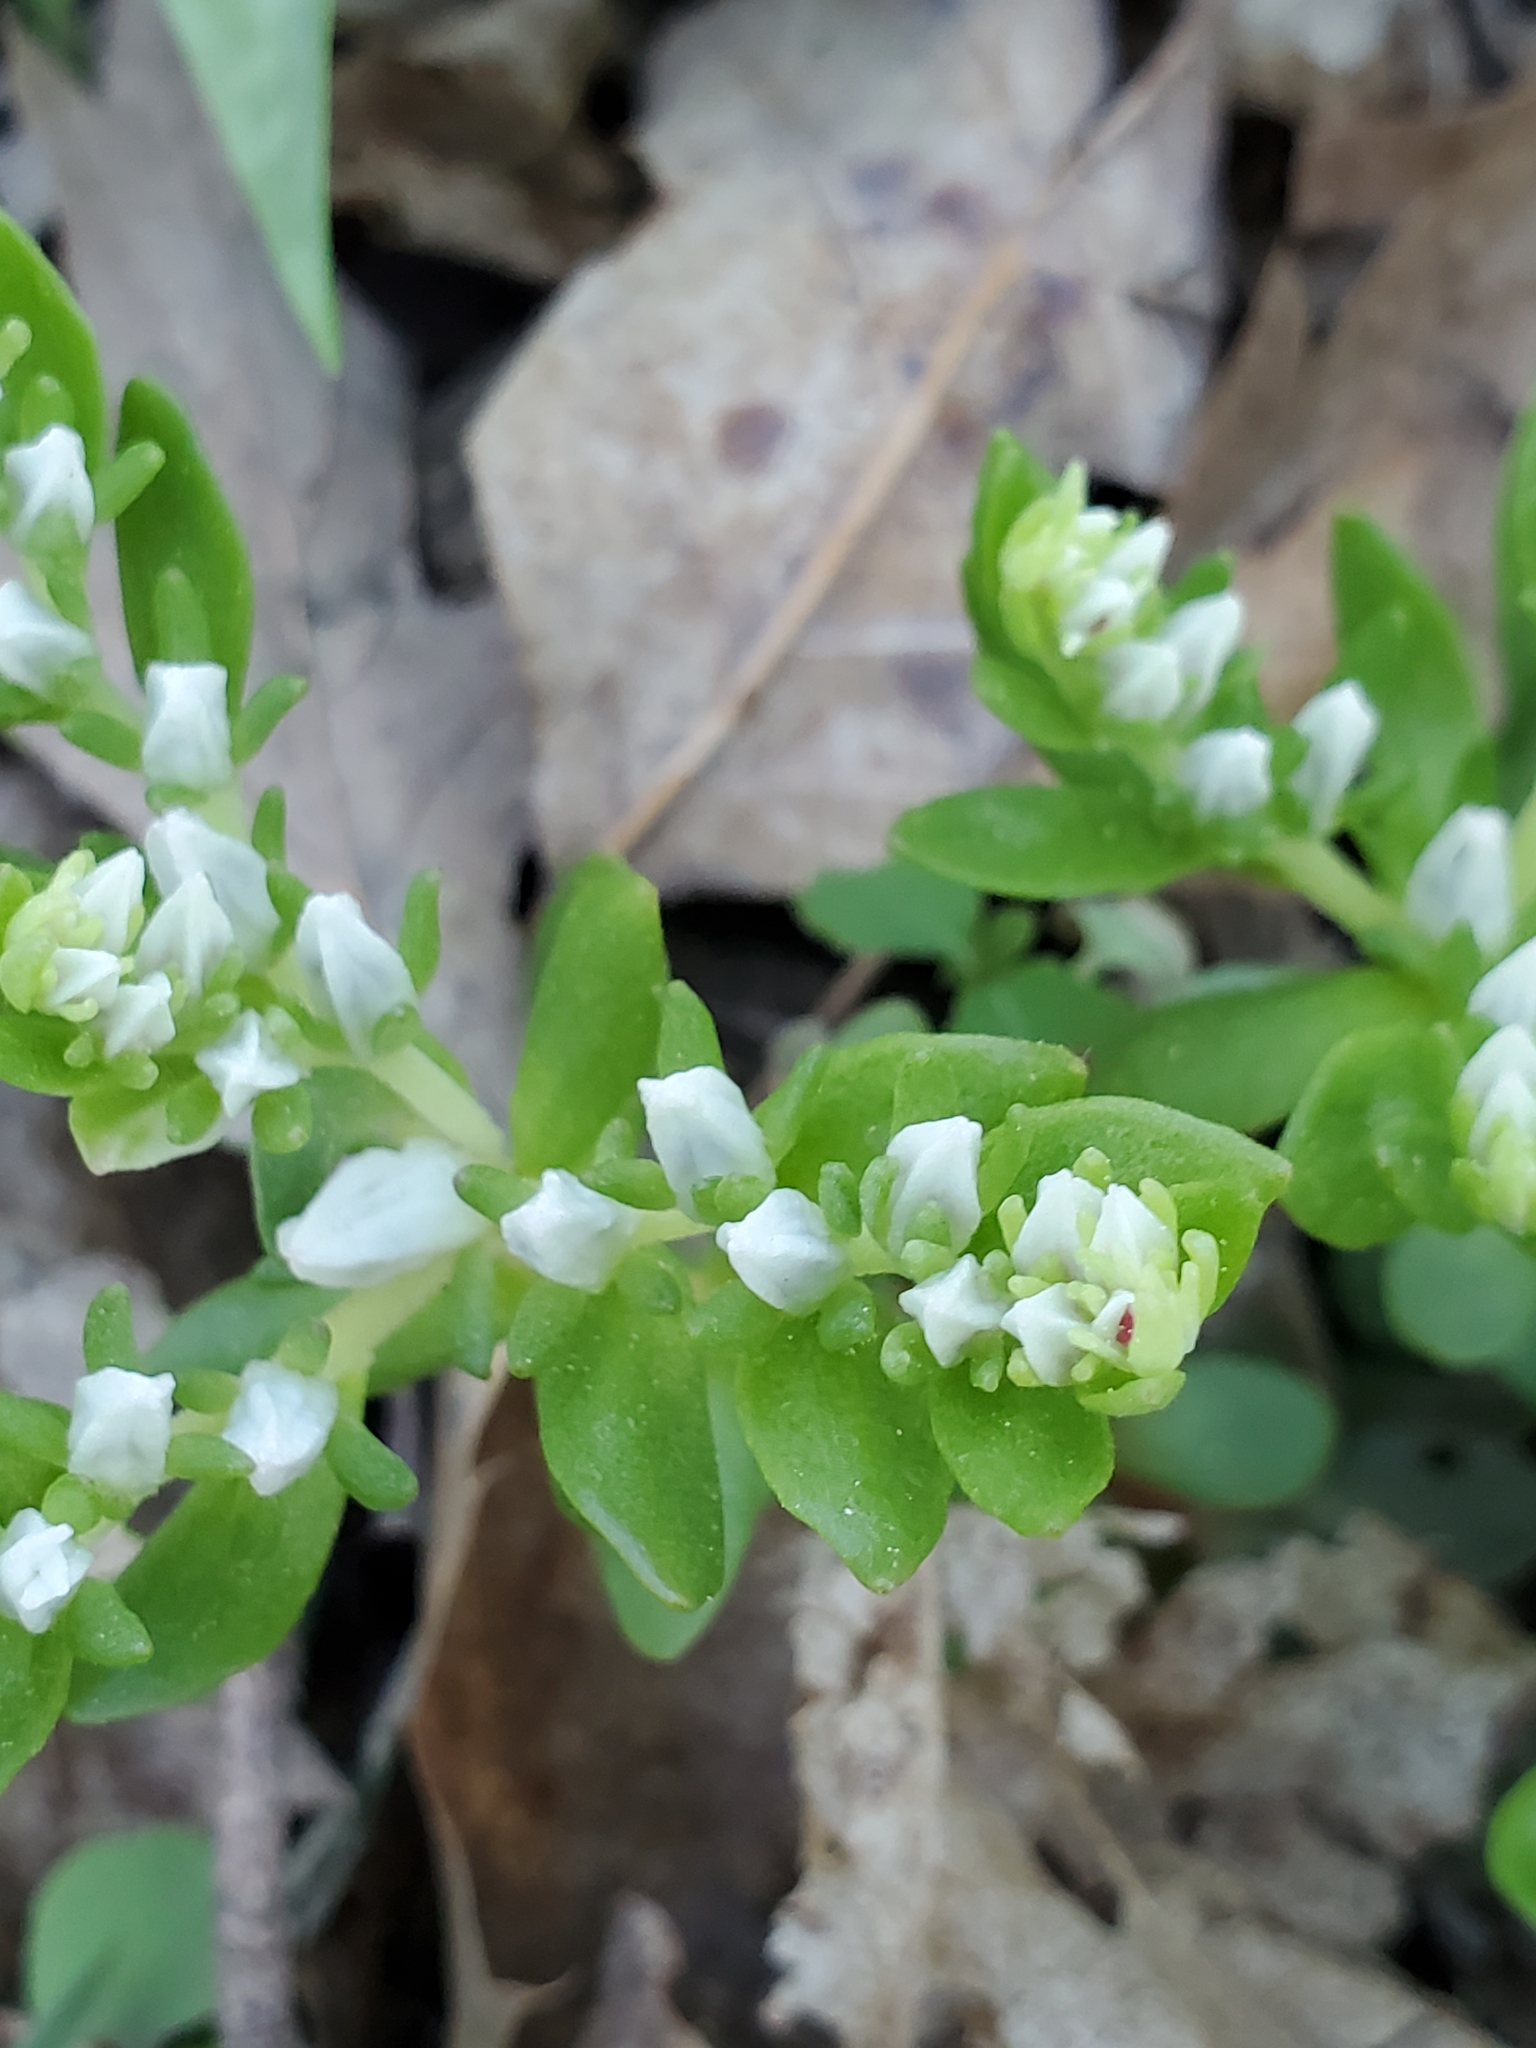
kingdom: Plantae
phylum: Tracheophyta
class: Magnoliopsida
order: Saxifragales
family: Crassulaceae
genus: Sedum
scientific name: Sedum ternatum
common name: Wild stonecrop
